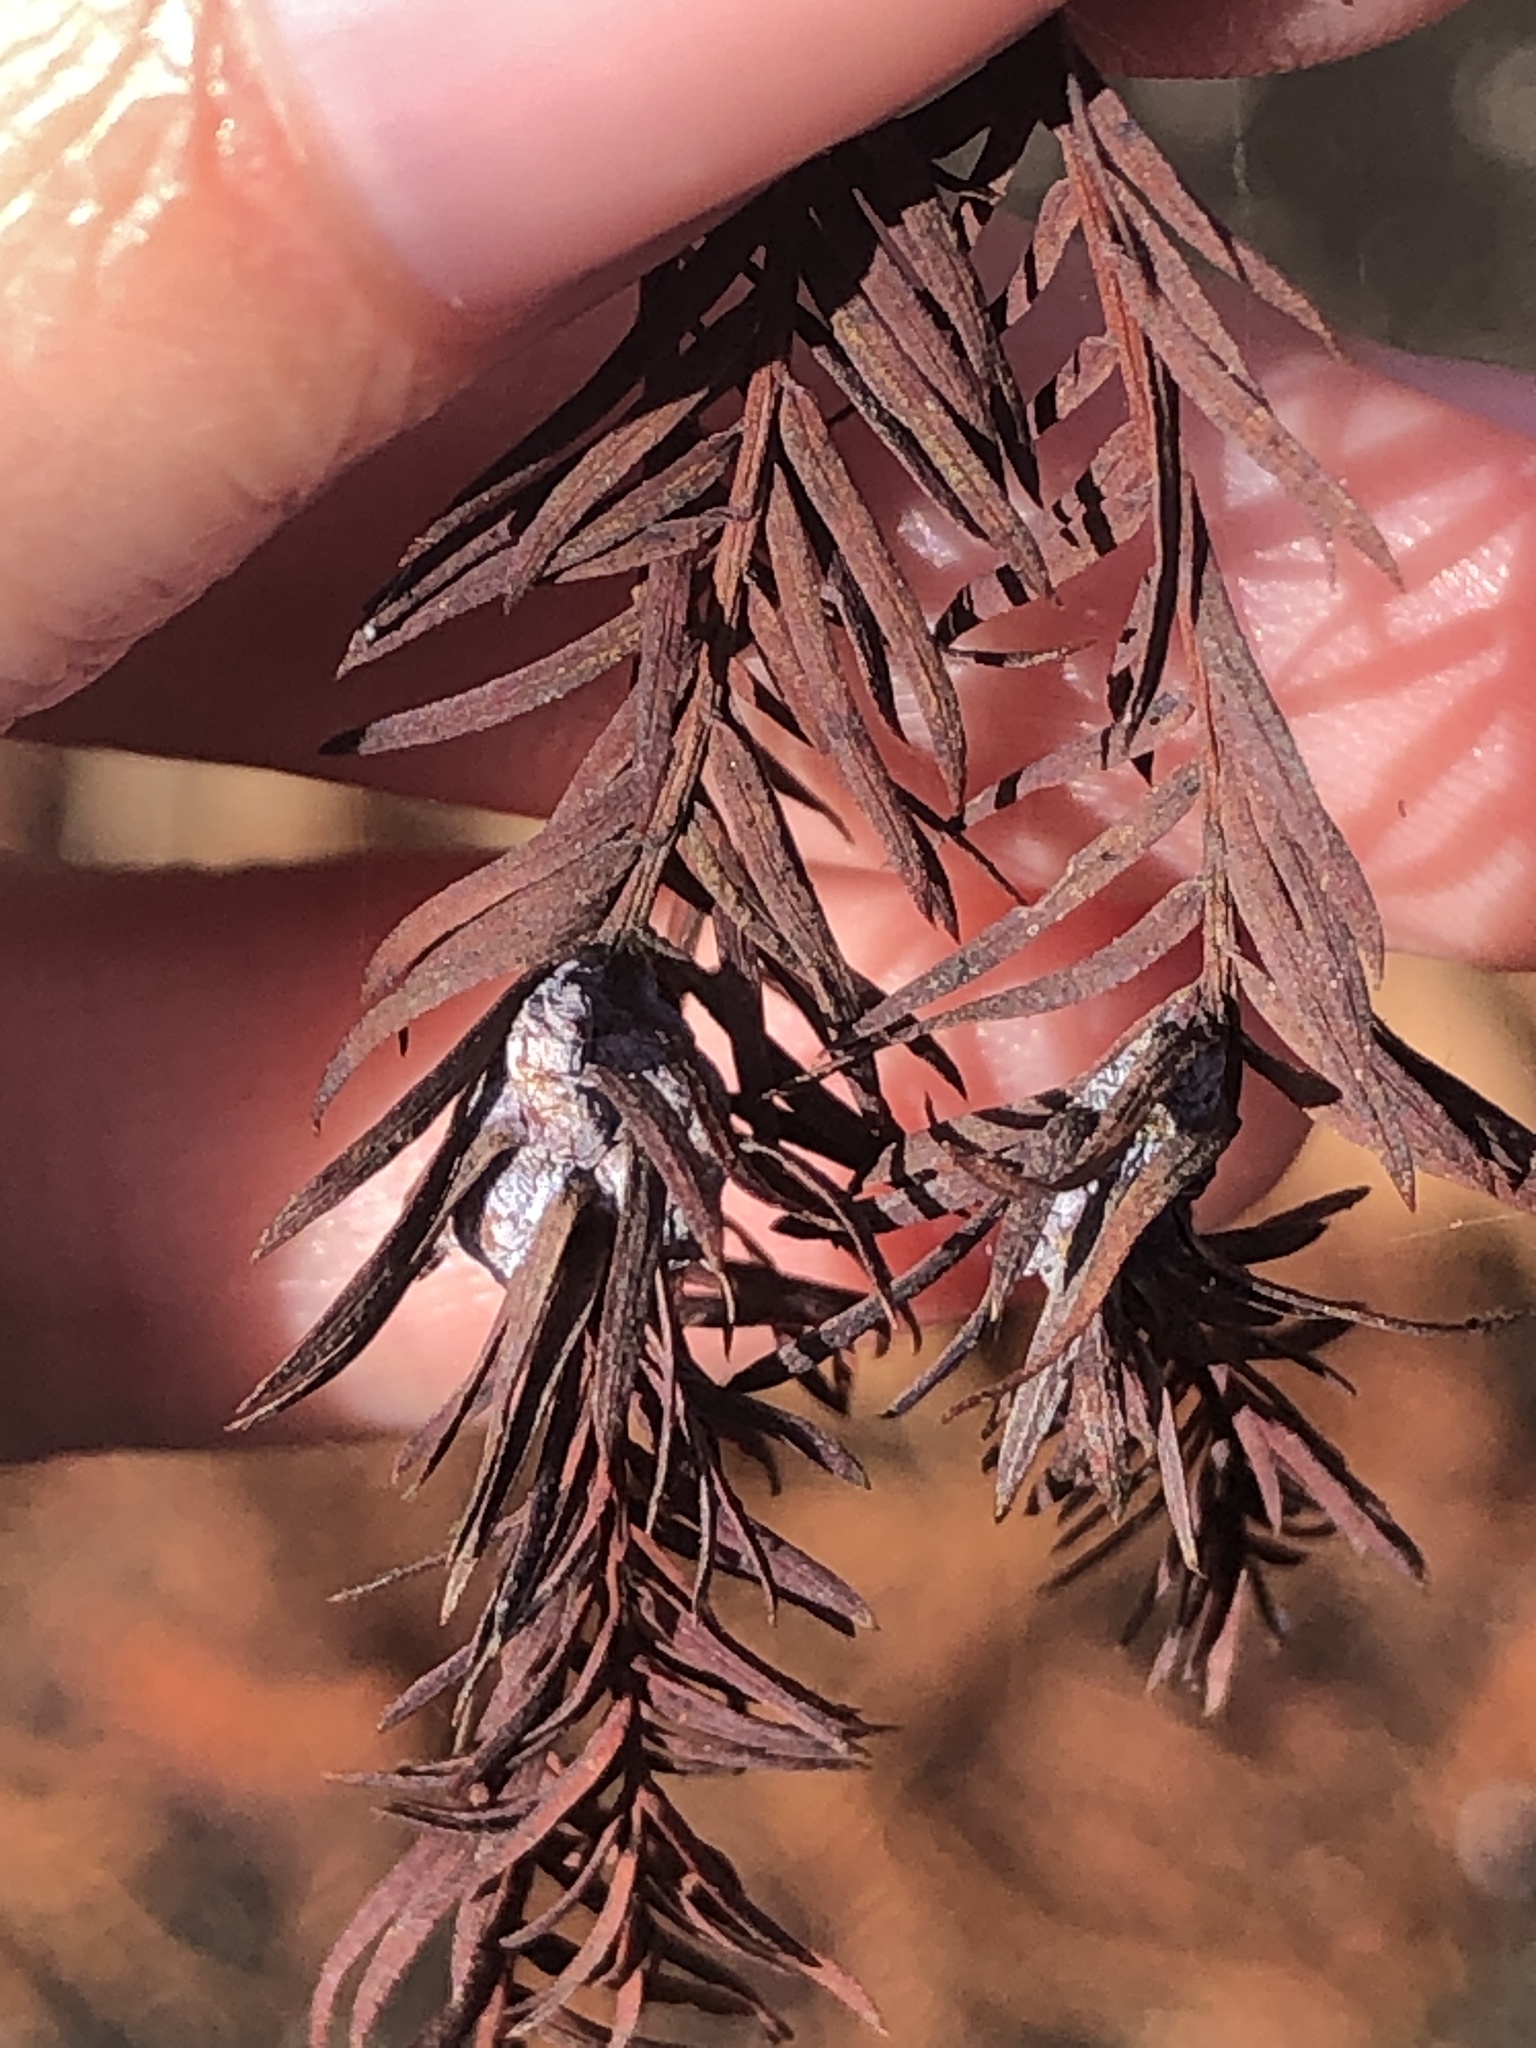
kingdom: Animalia
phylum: Arthropoda
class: Insecta
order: Diptera
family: Cecidomyiidae
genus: Taxodiomyia
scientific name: Taxodiomyia cupressiananassa
